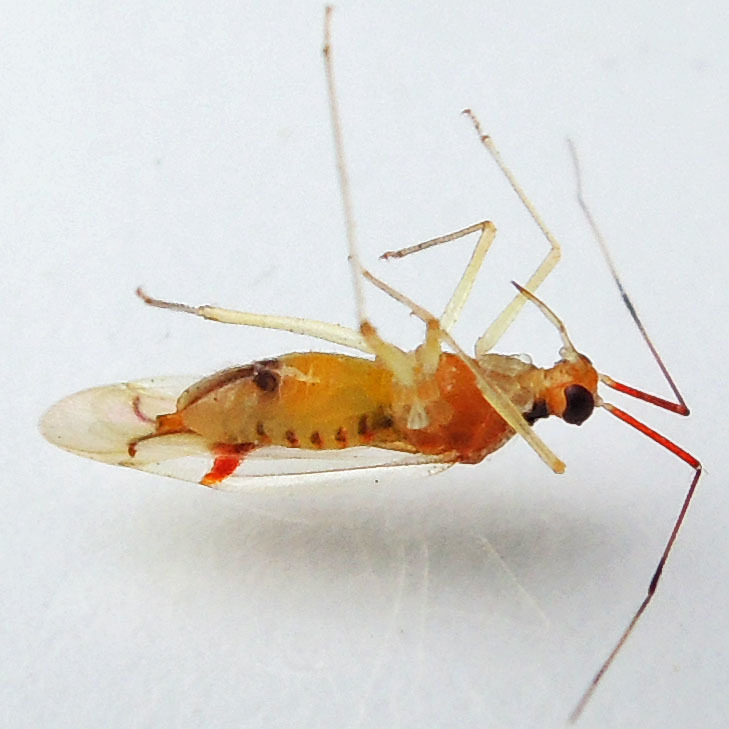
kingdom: Animalia
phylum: Arthropoda
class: Insecta
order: Hemiptera
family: Miridae
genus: Hyaliodes
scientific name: Hyaliodes harti
